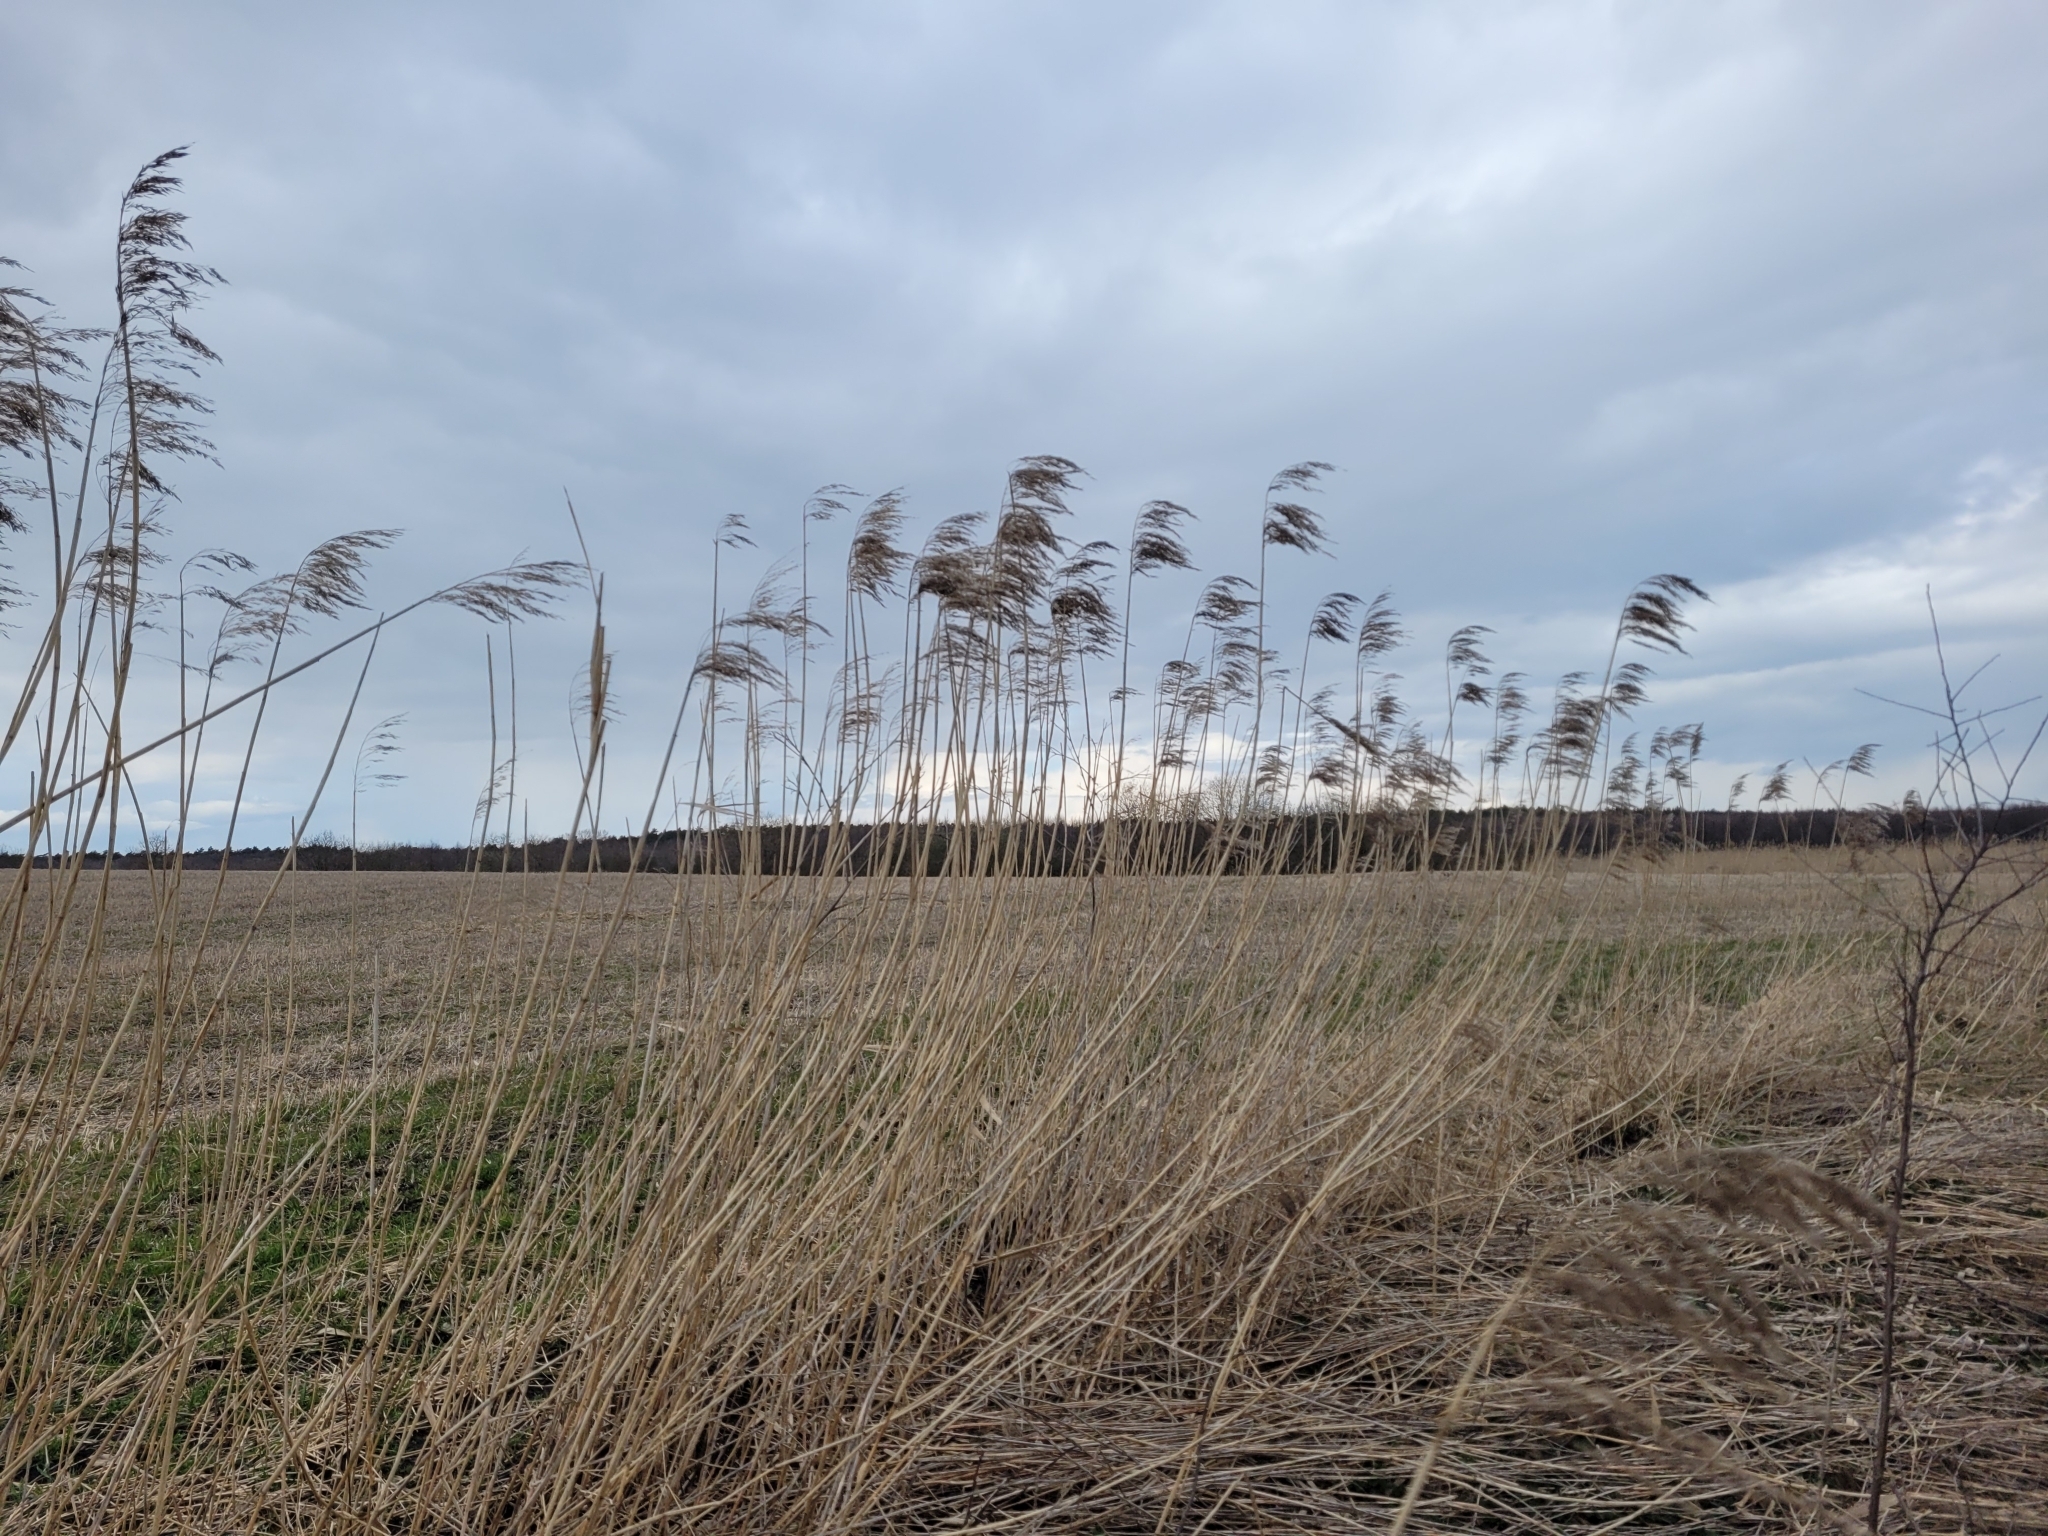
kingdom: Plantae
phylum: Tracheophyta
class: Liliopsida
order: Poales
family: Poaceae
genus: Phragmites
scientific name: Phragmites australis
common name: Common reed
